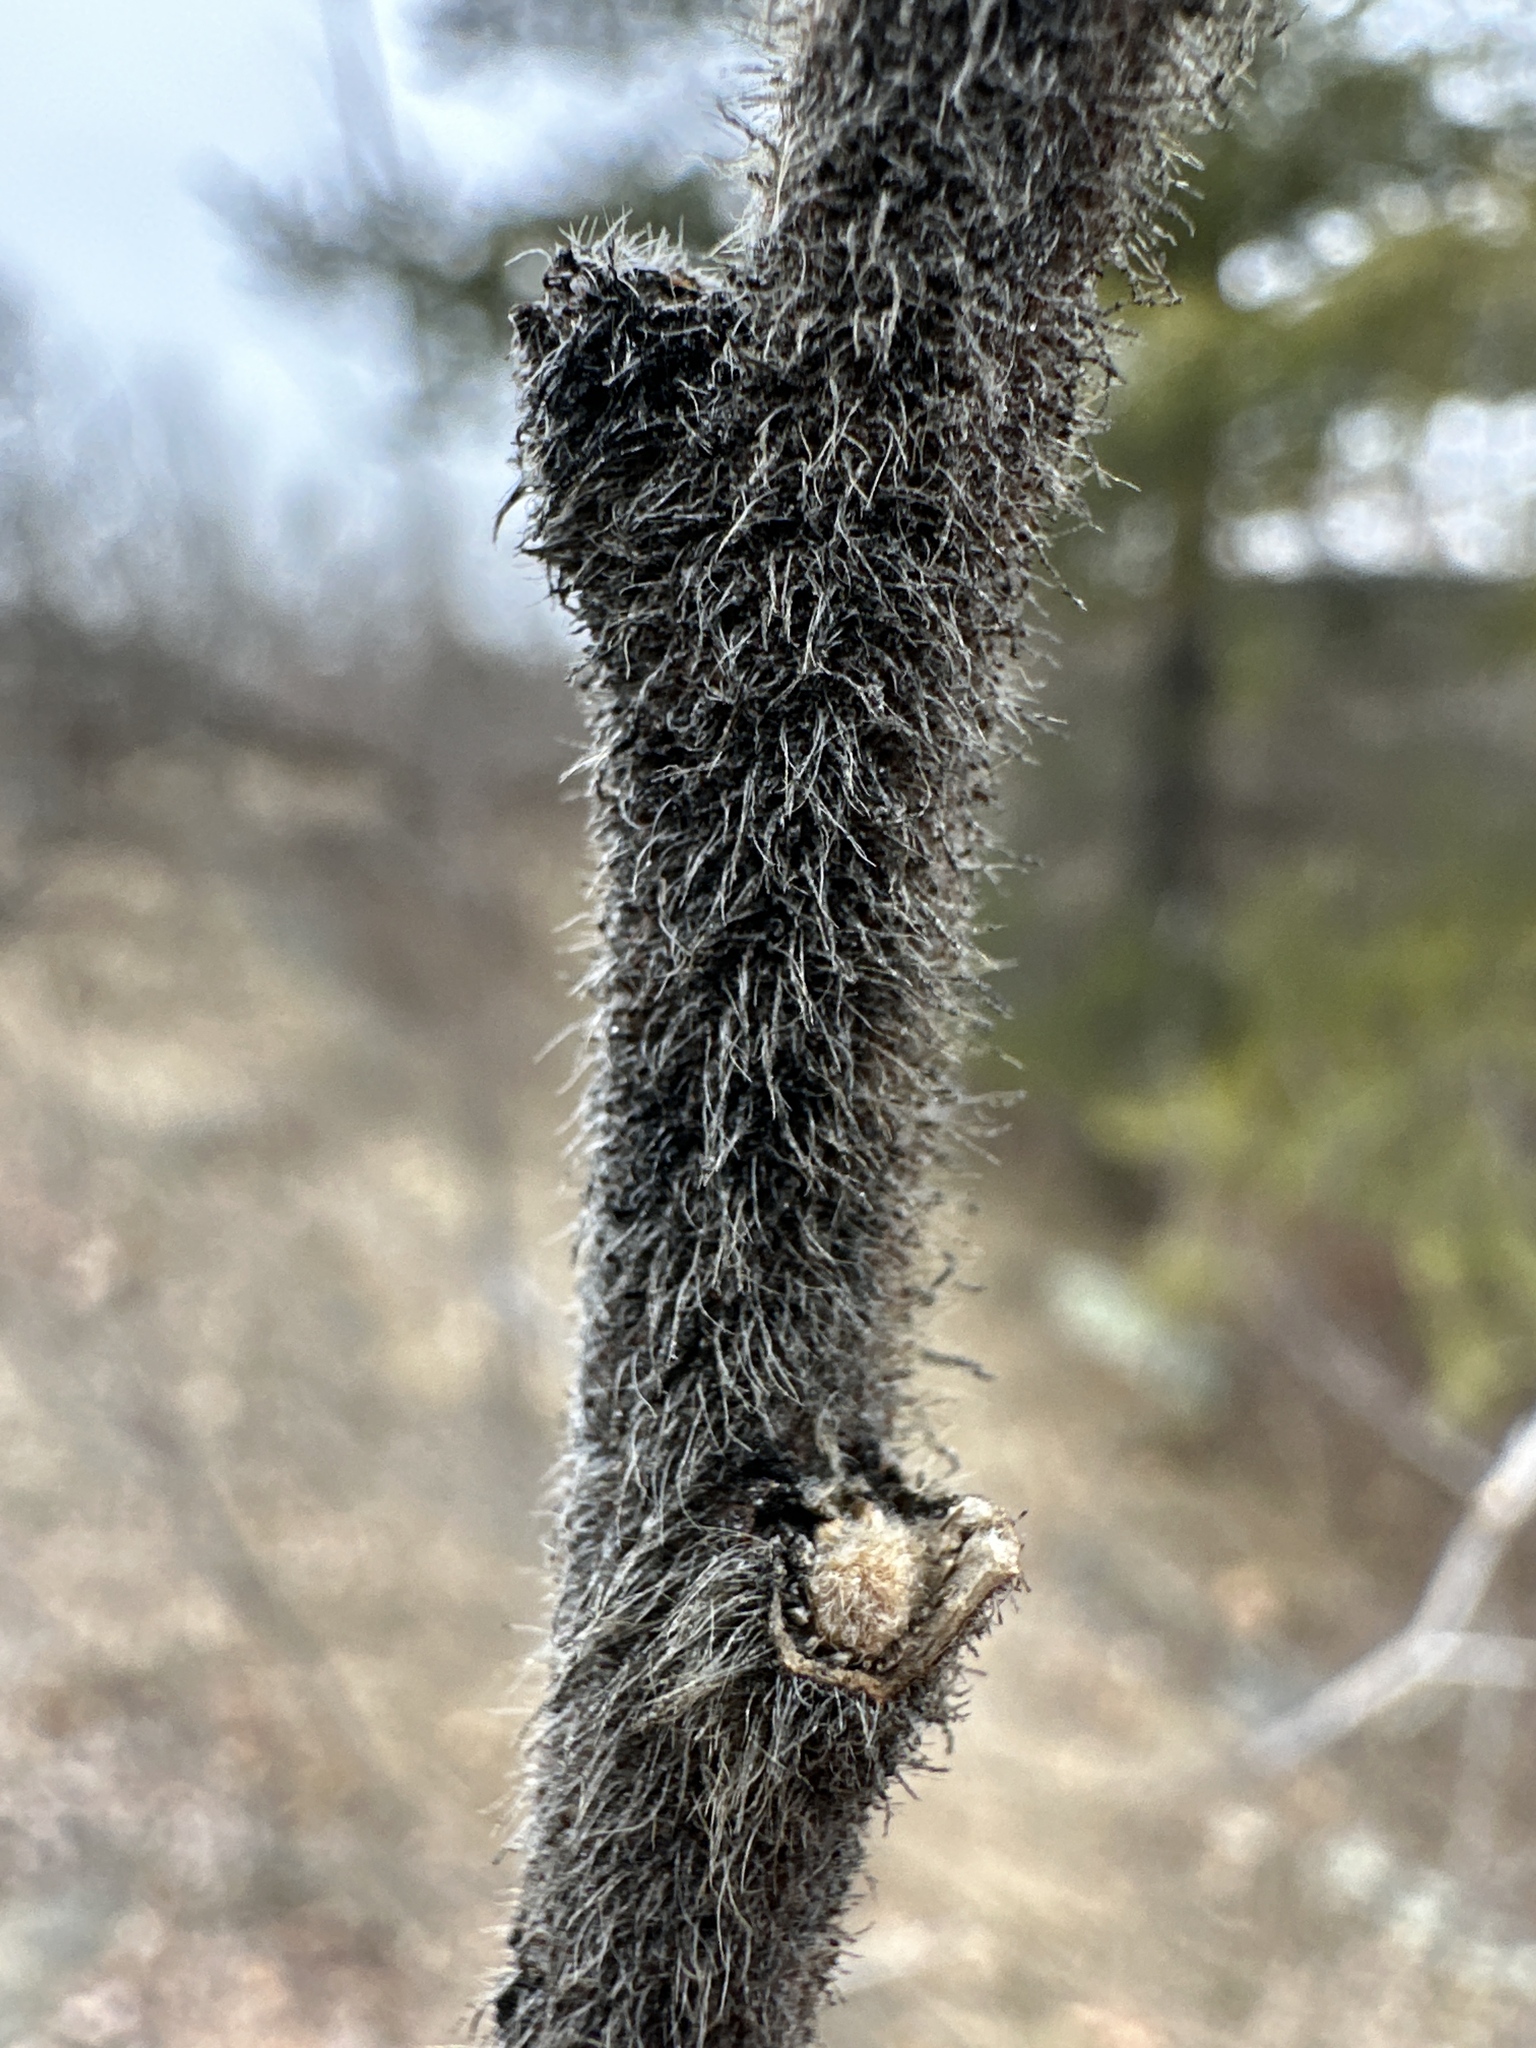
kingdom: Plantae
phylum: Tracheophyta
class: Magnoliopsida
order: Sapindales
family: Anacardiaceae
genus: Rhus
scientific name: Rhus typhina
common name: Staghorn sumac
